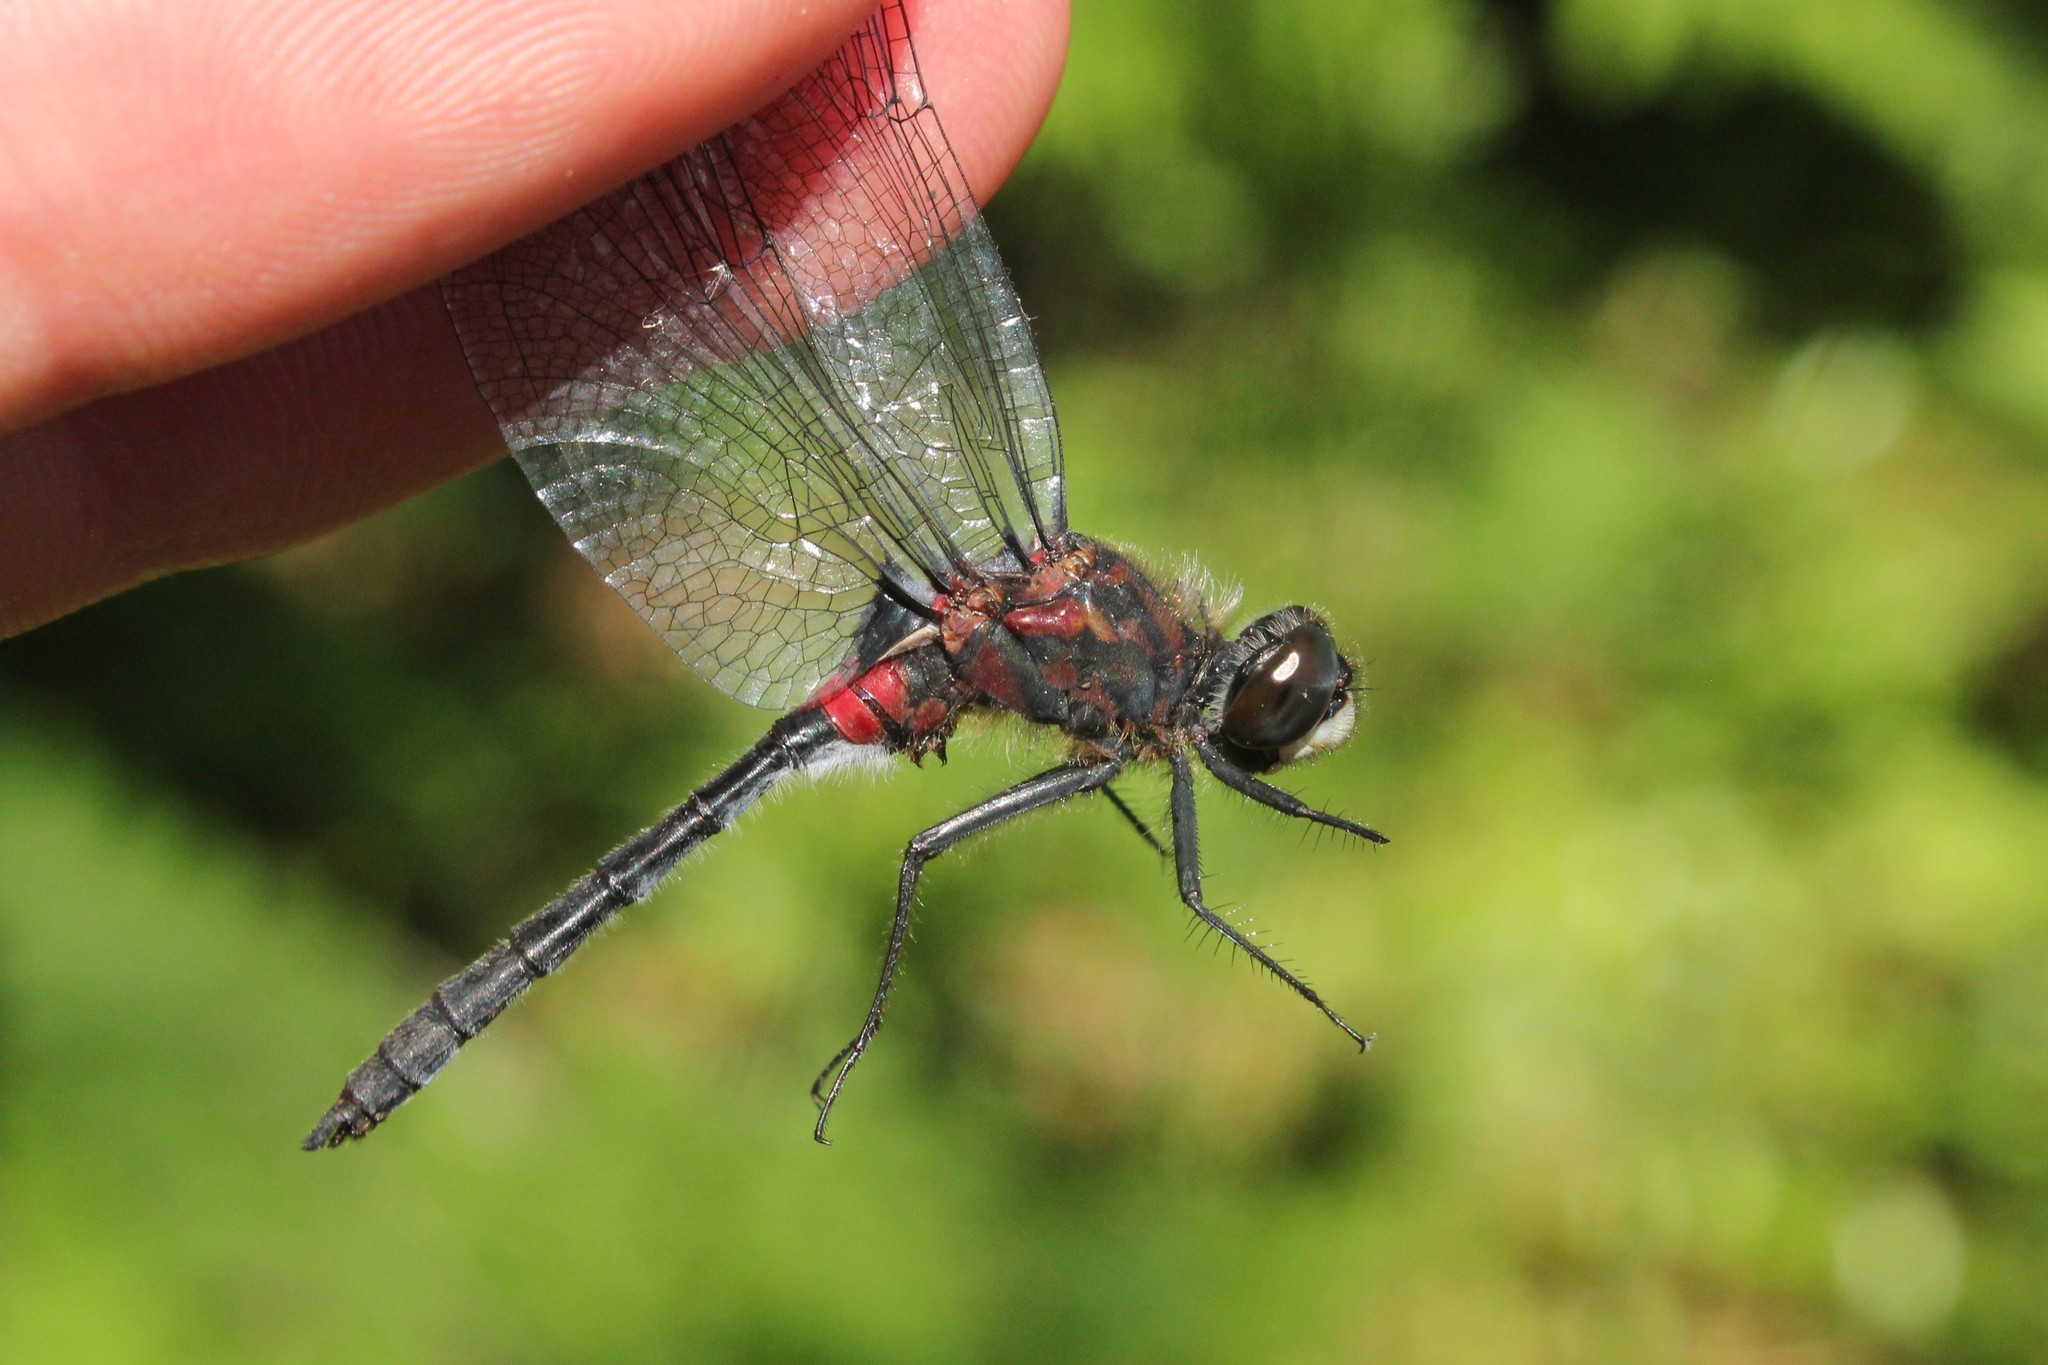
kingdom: Animalia
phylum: Arthropoda
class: Insecta
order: Odonata
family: Libellulidae
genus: Leucorrhinia
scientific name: Leucorrhinia glacialis
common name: Crimson-ringed whiteface
